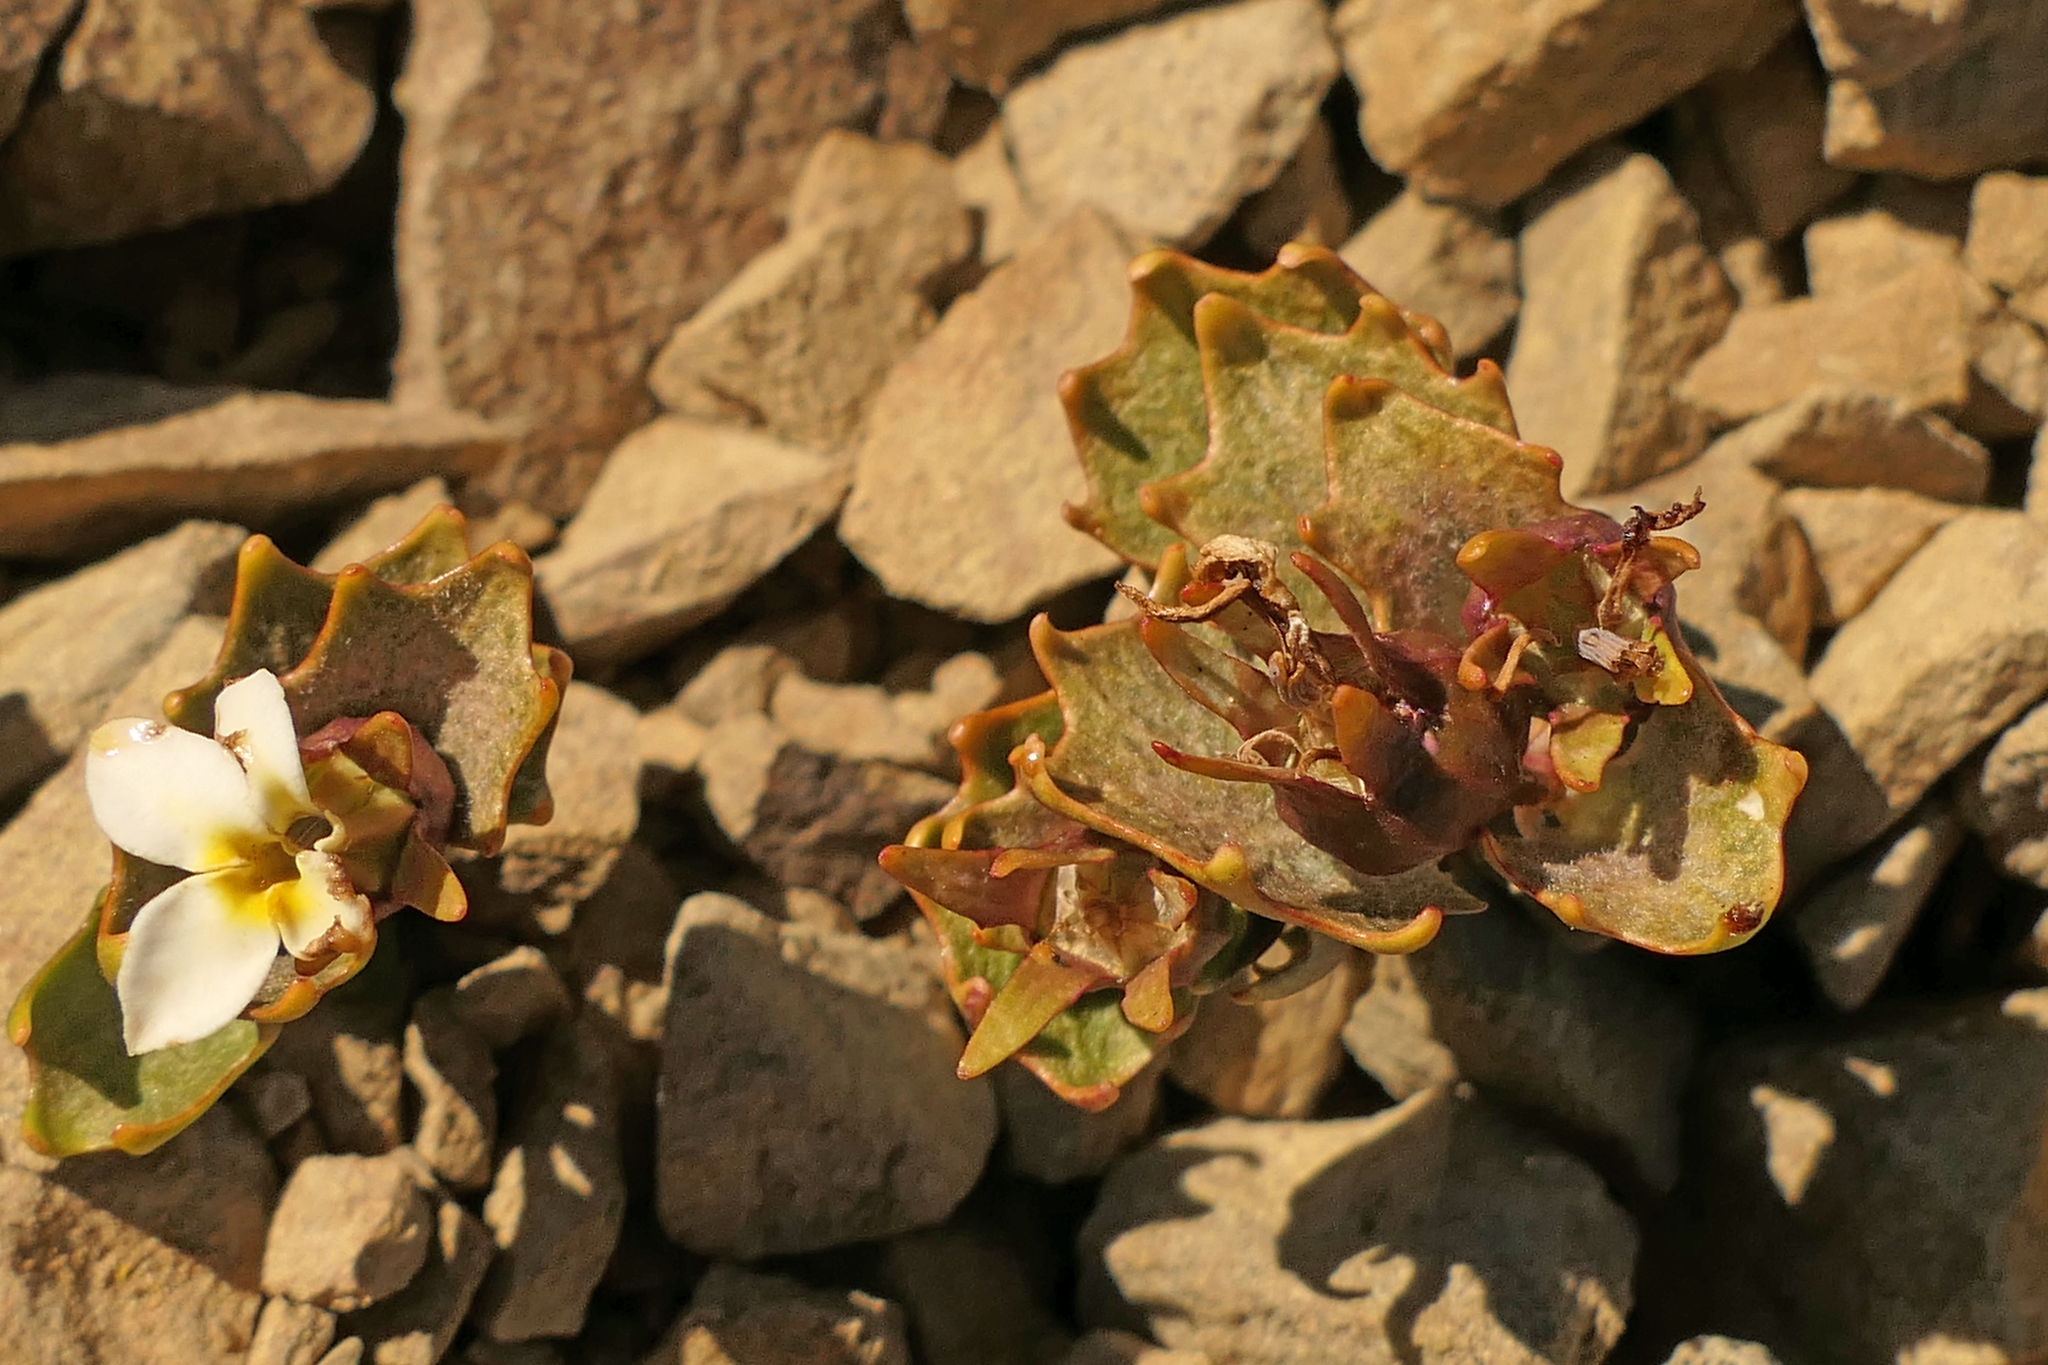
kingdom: Plantae
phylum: Tracheophyta
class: Magnoliopsida
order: Asterales
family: Campanulaceae
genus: Lobelia
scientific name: Lobelia roughii
